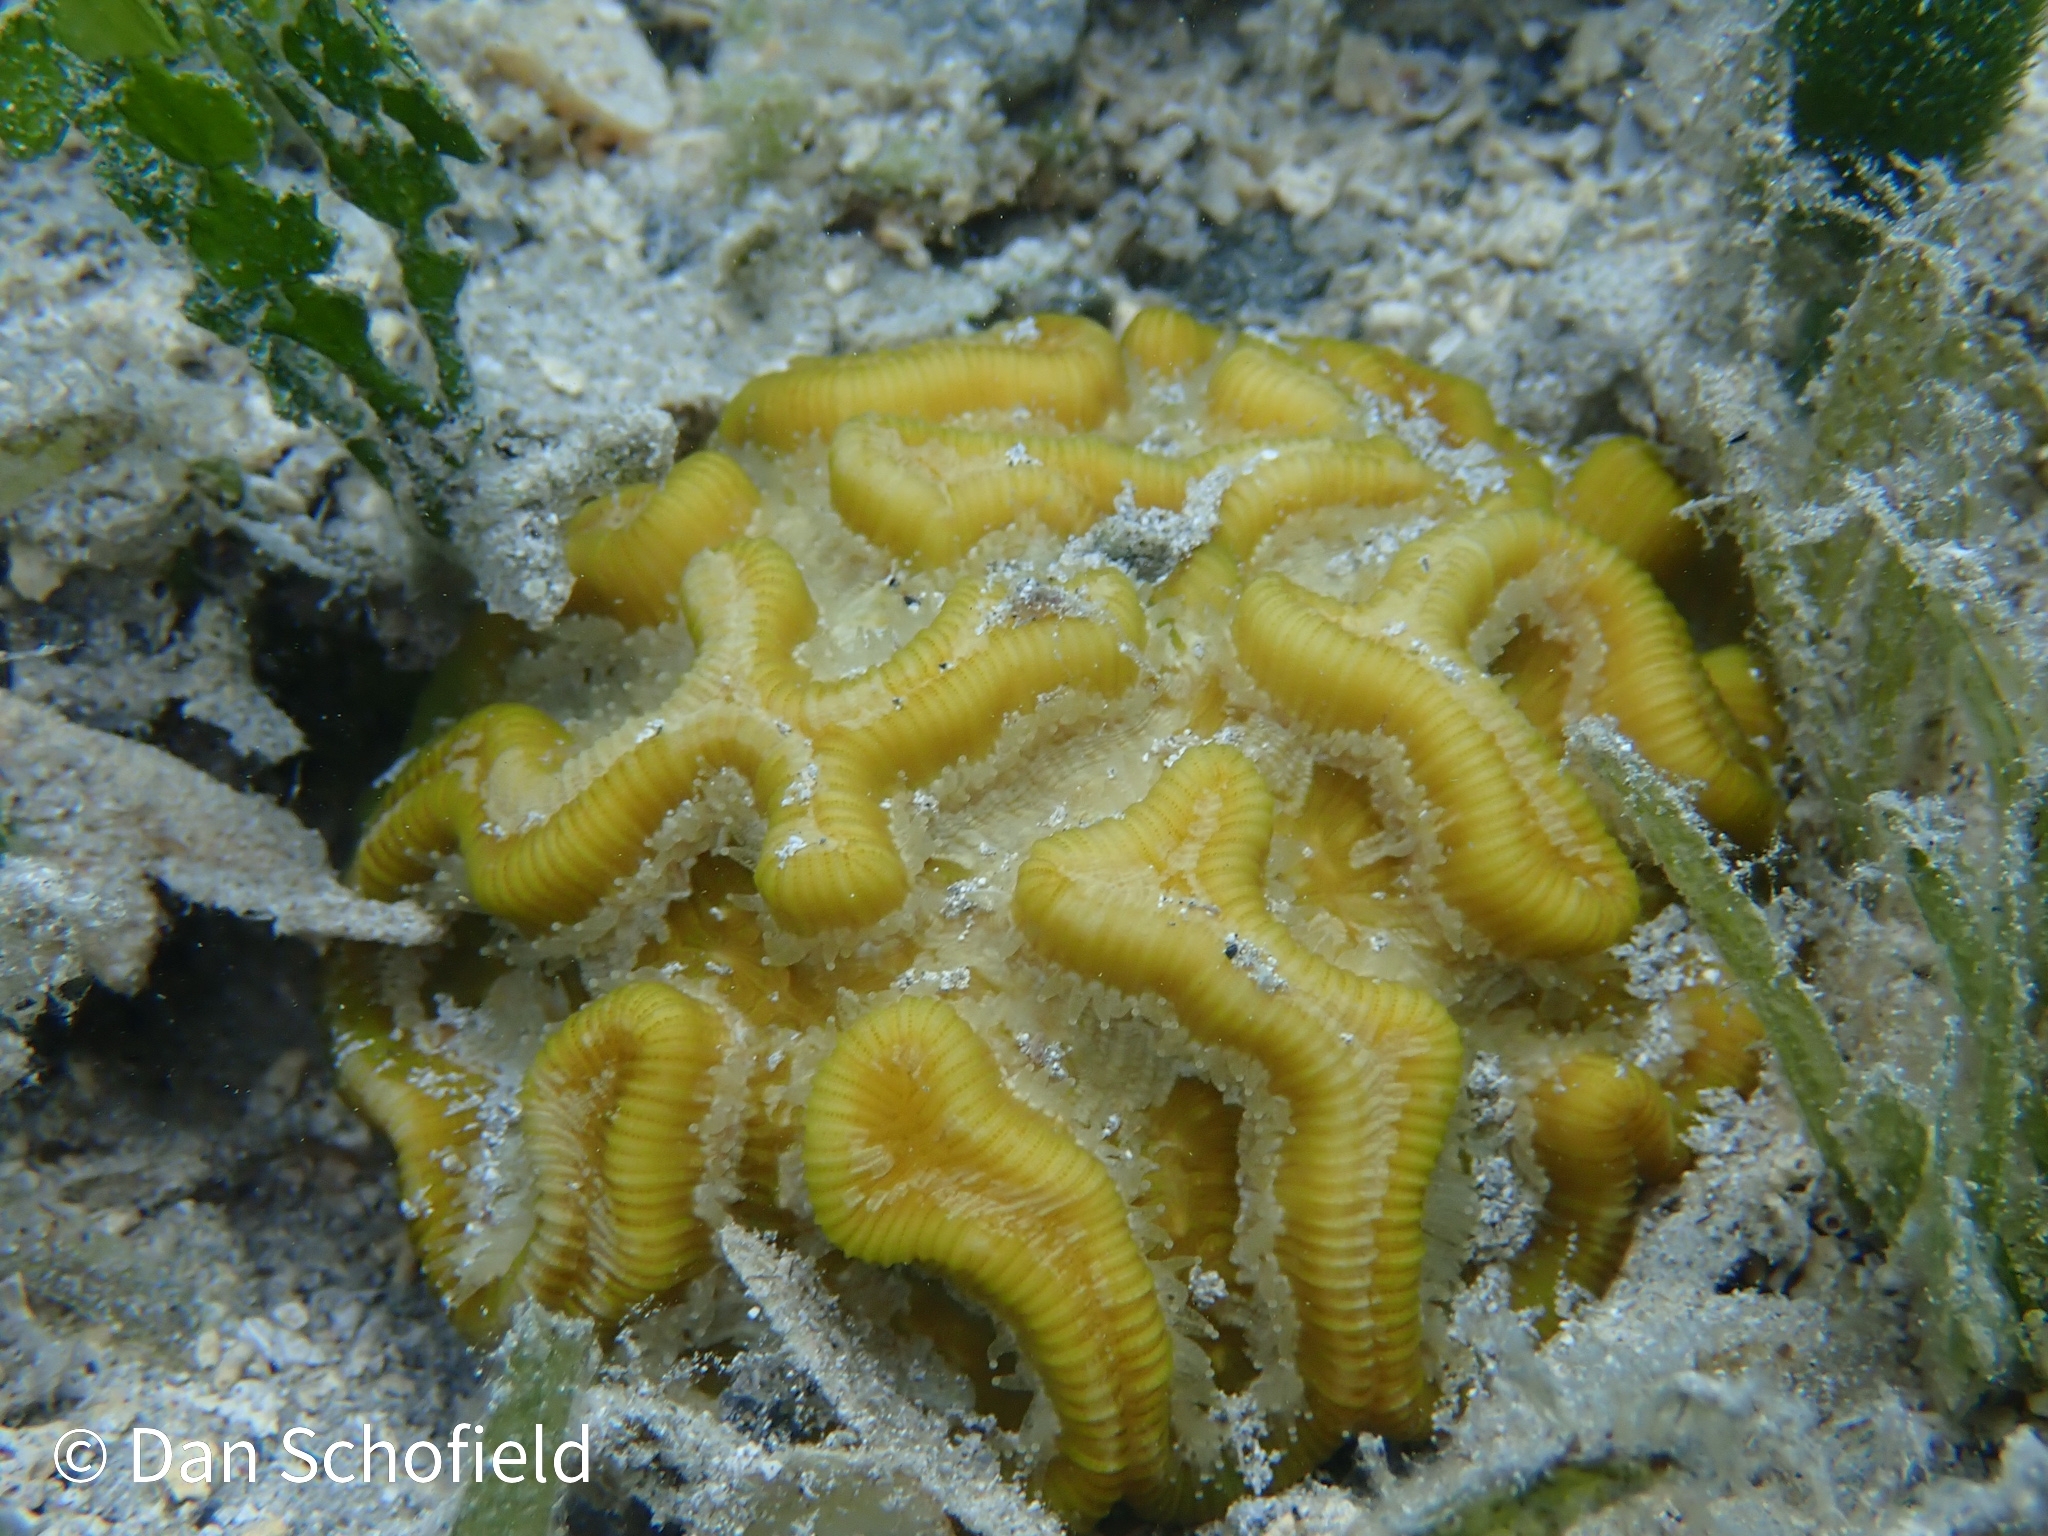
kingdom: Animalia
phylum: Cnidaria
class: Anthozoa
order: Scleractinia
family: Faviidae
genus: Manicina
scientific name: Manicina areolata
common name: Rose coral
